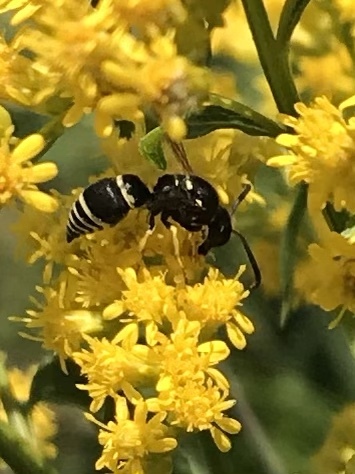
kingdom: Animalia
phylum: Arthropoda
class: Insecta
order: Hymenoptera
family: Vespidae
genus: Ancistrocerus
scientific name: Ancistrocerus
